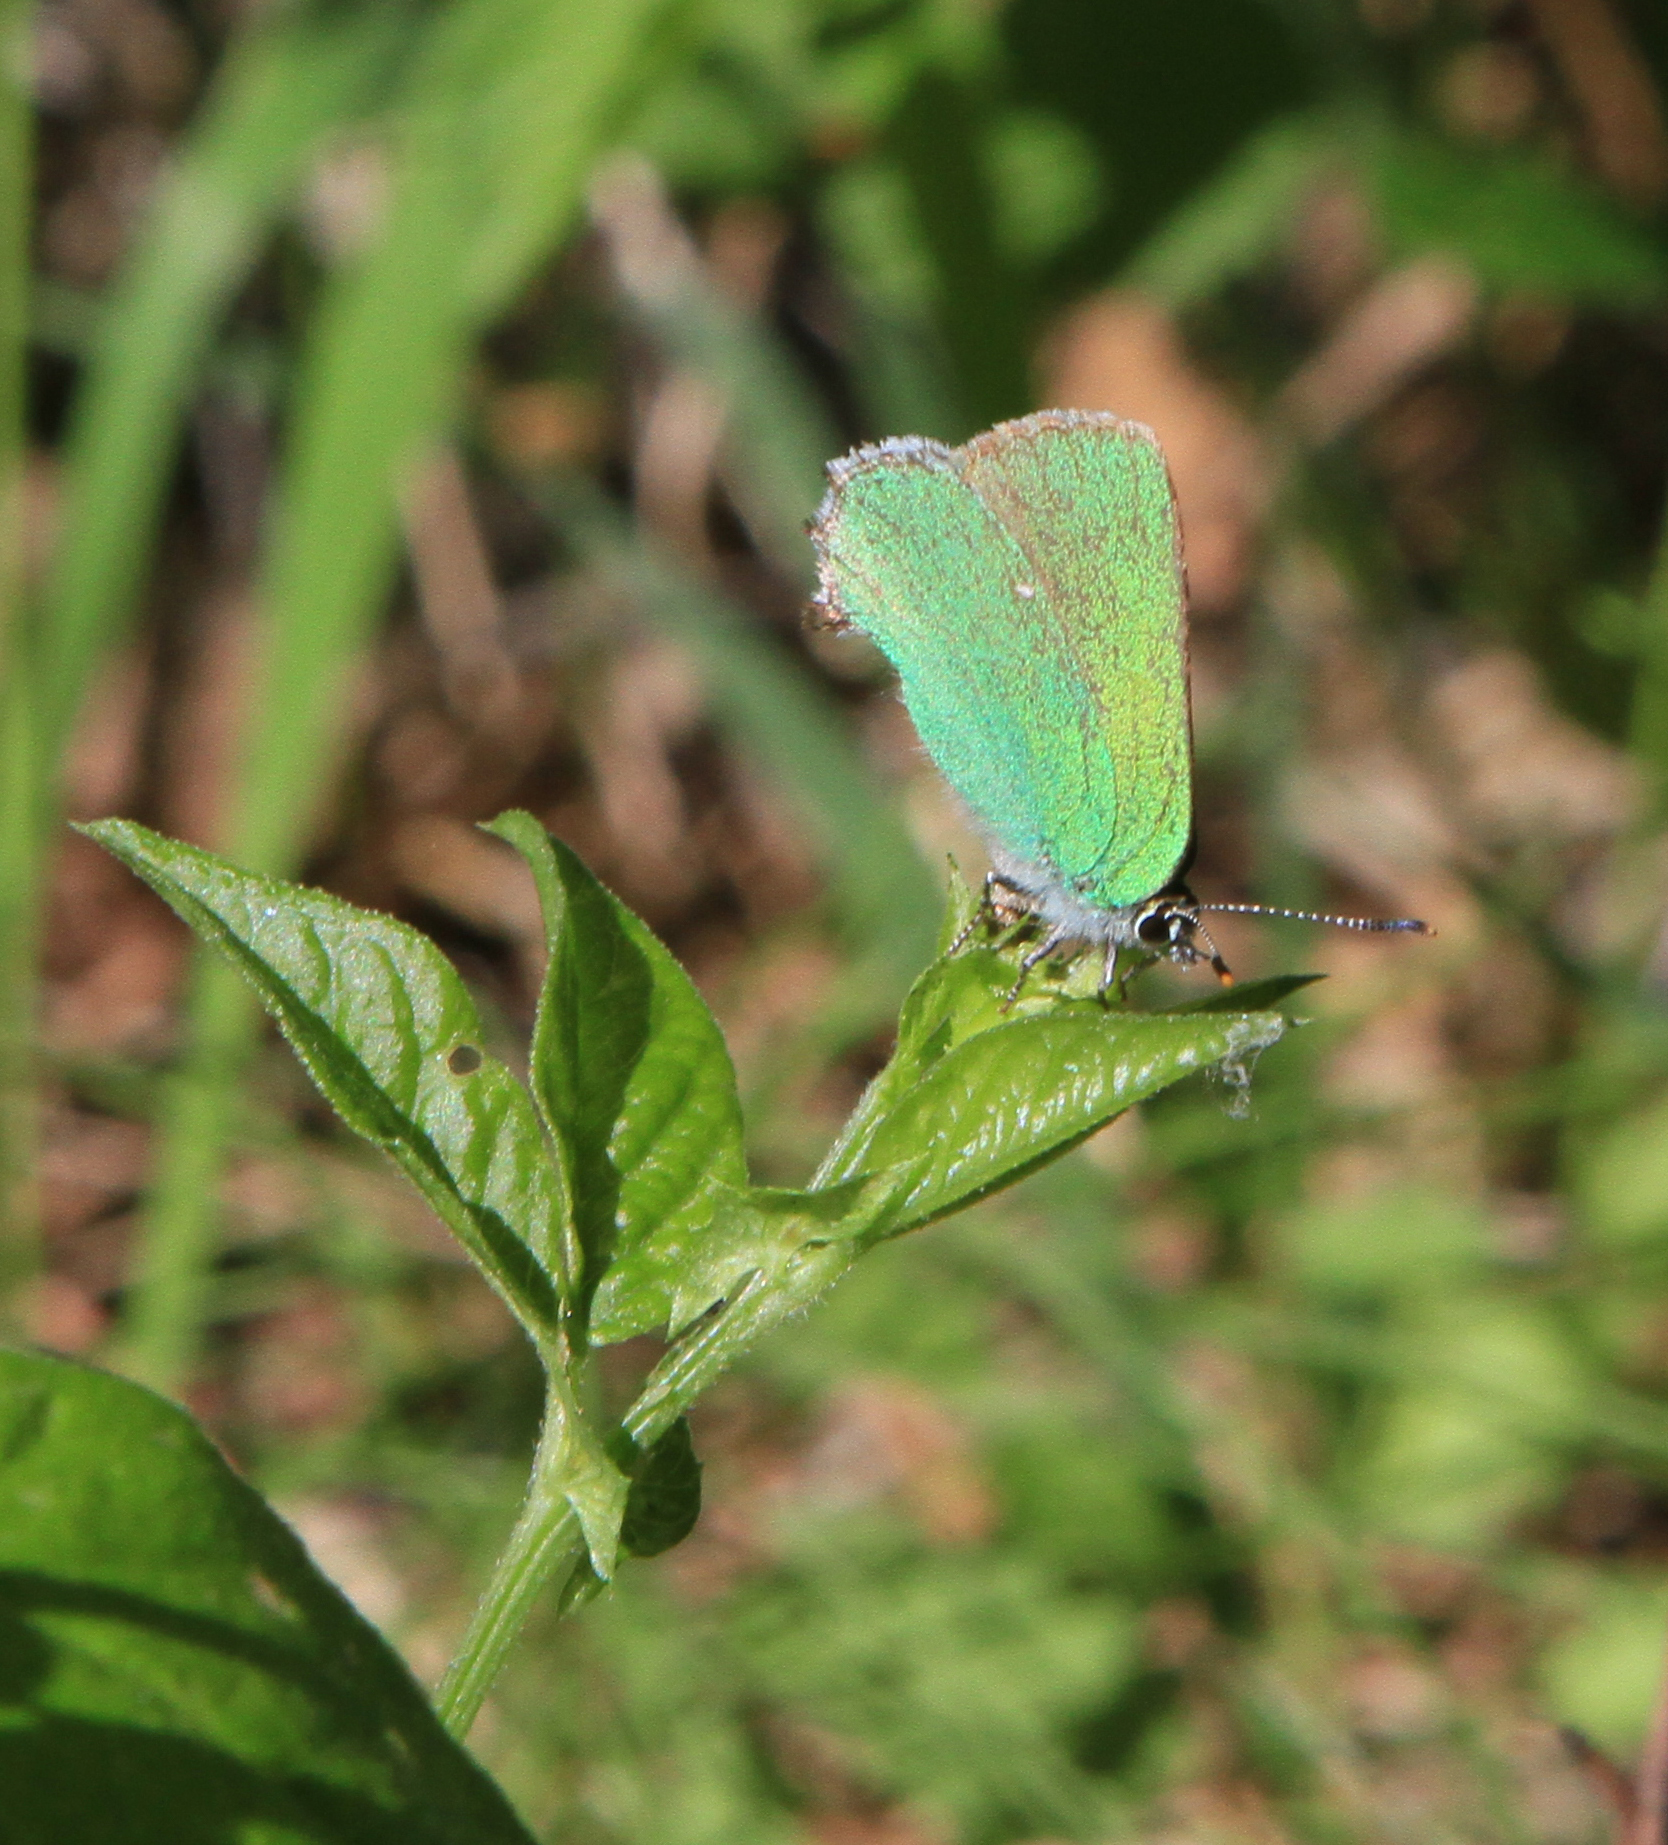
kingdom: Animalia
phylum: Arthropoda
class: Insecta
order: Lepidoptera
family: Lycaenidae
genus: Callophrys
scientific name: Callophrys rubi
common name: Green hairstreak
